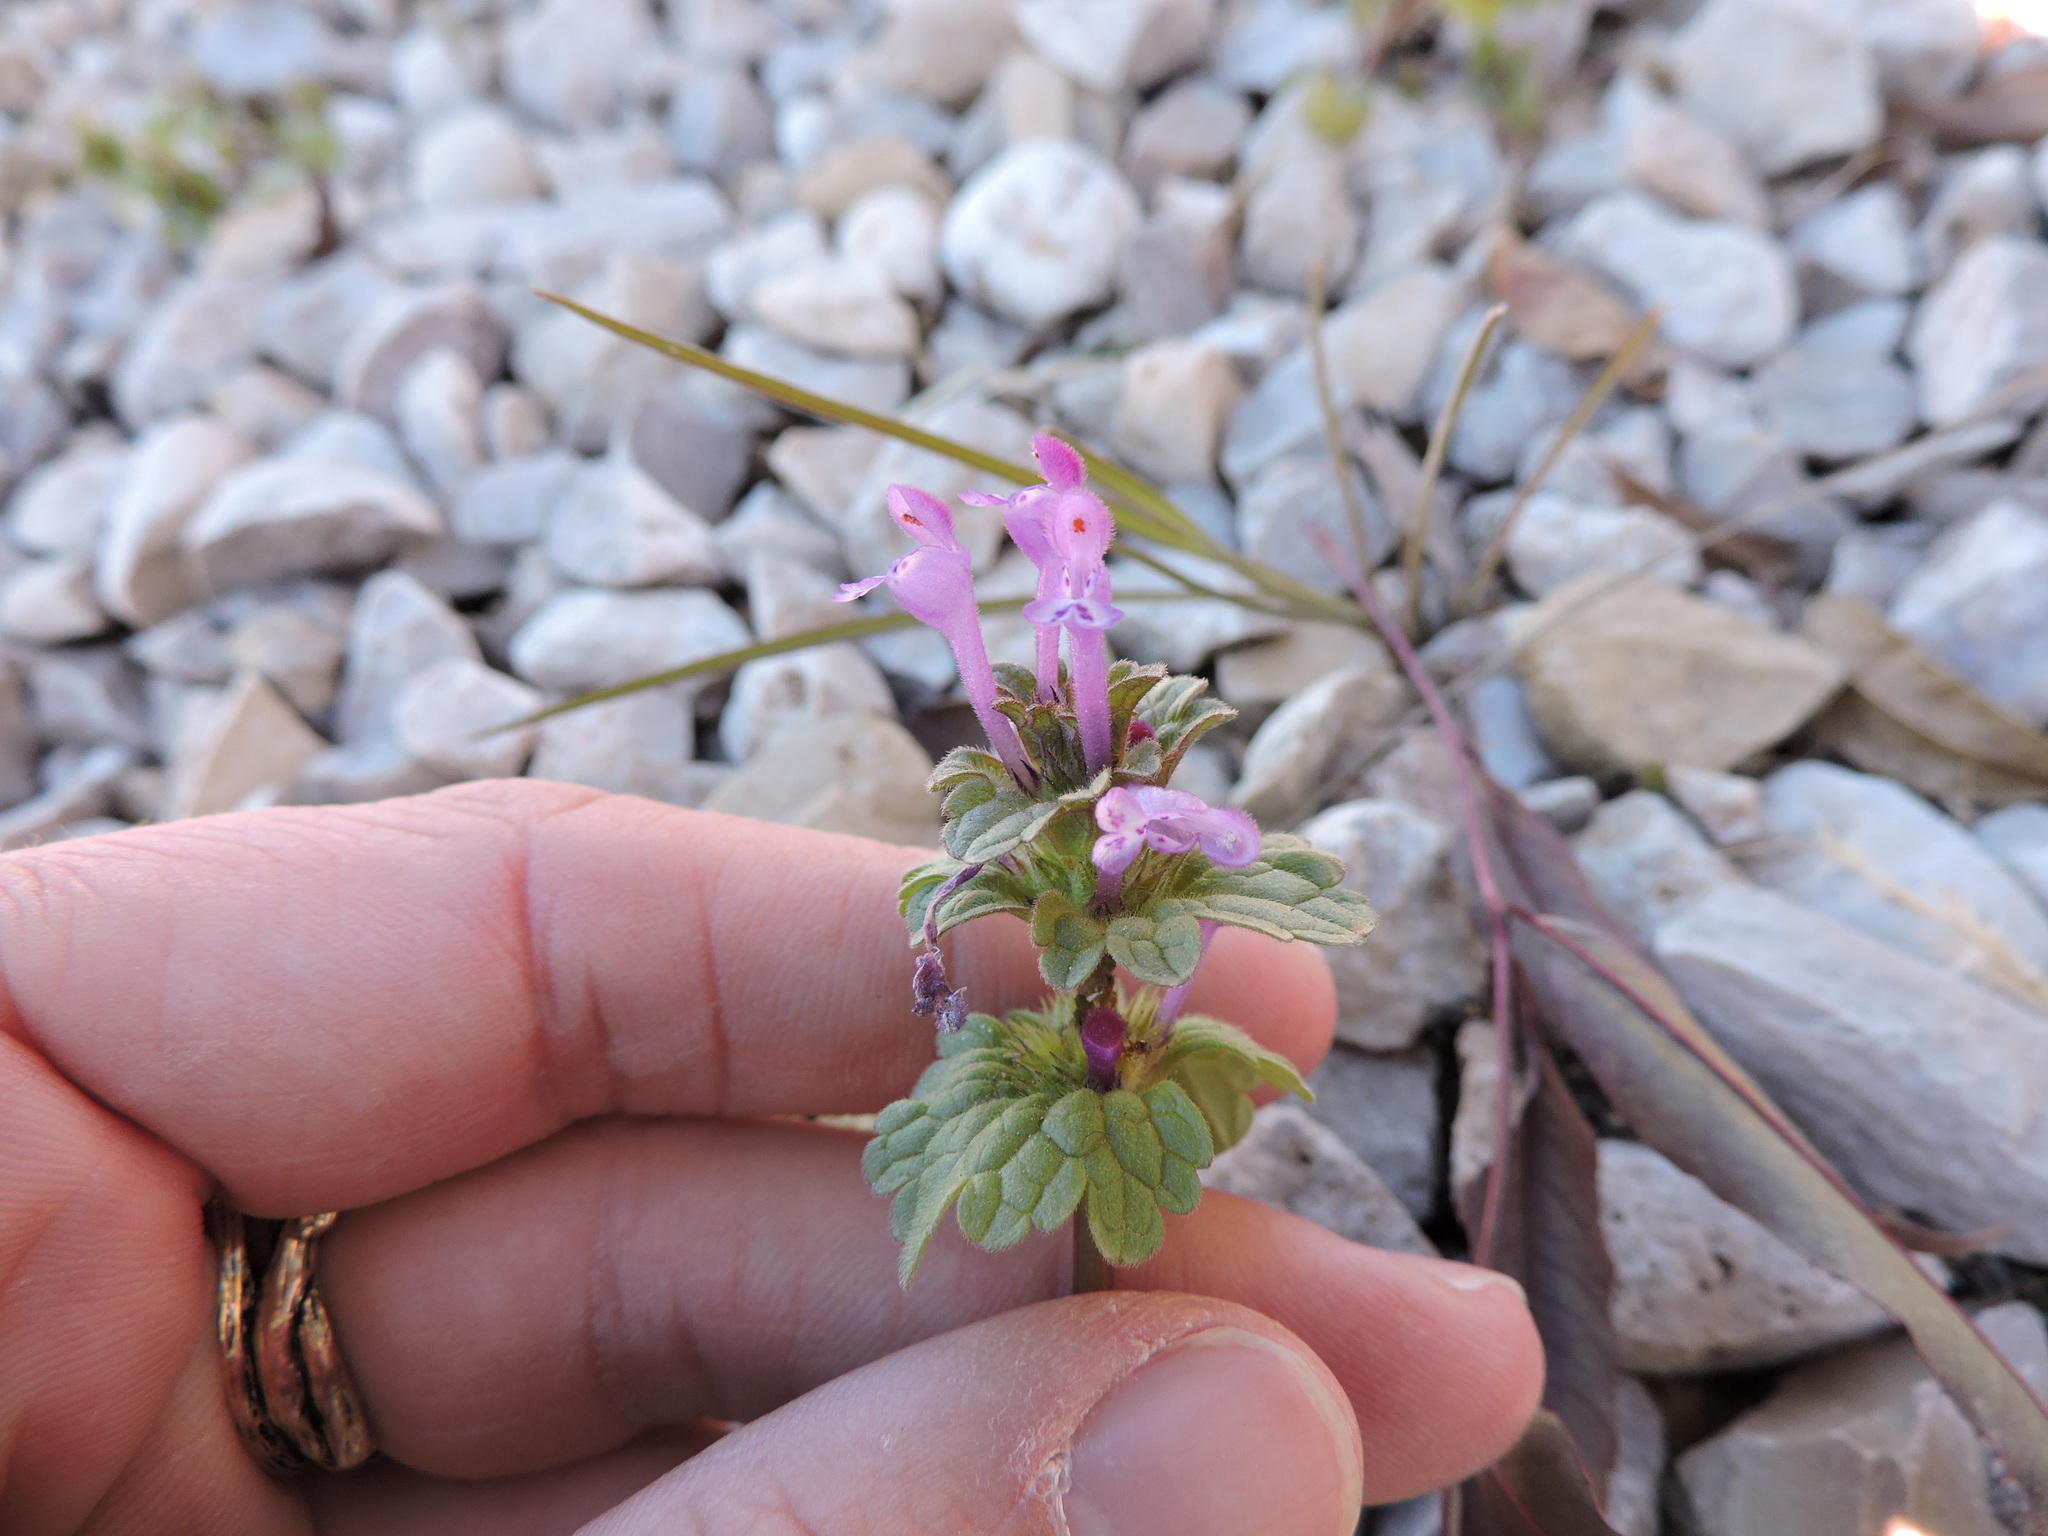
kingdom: Plantae
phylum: Tracheophyta
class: Magnoliopsida
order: Lamiales
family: Lamiaceae
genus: Lamium
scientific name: Lamium amplexicaule
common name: Henbit dead-nettle
